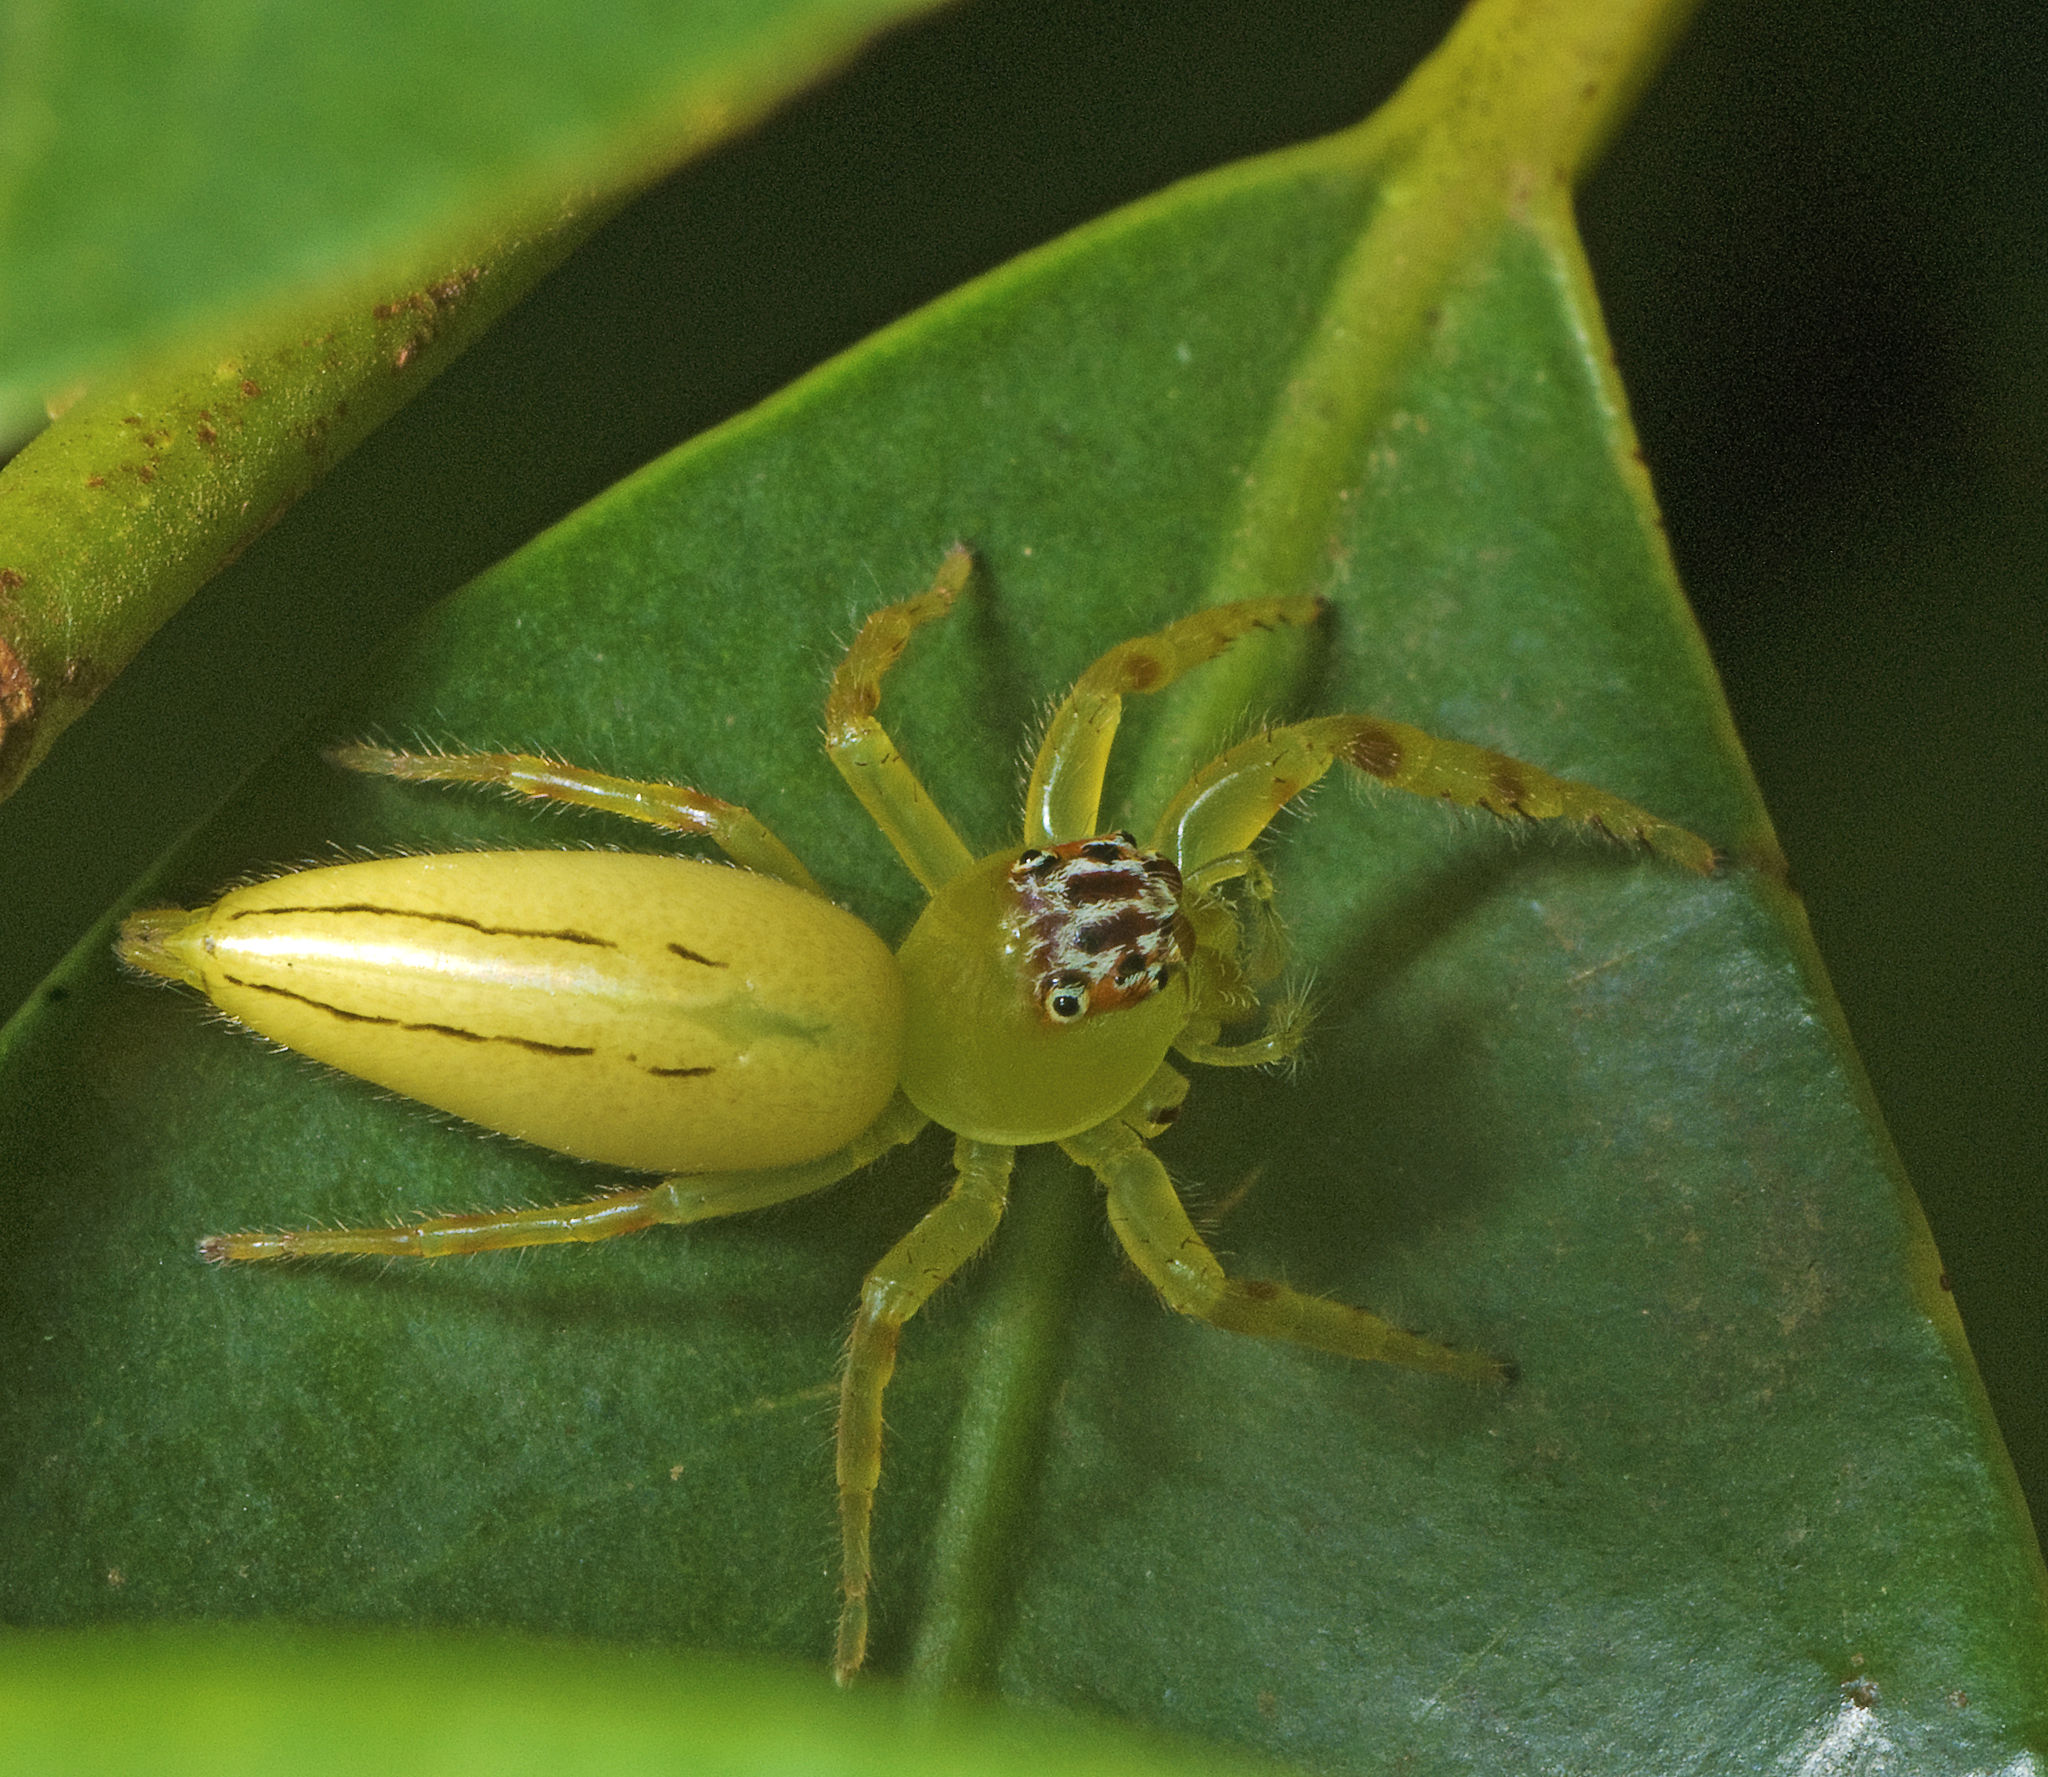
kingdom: Animalia
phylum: Arthropoda
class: Arachnida
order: Araneae
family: Salticidae
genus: Mopsus
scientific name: Mopsus mormon
